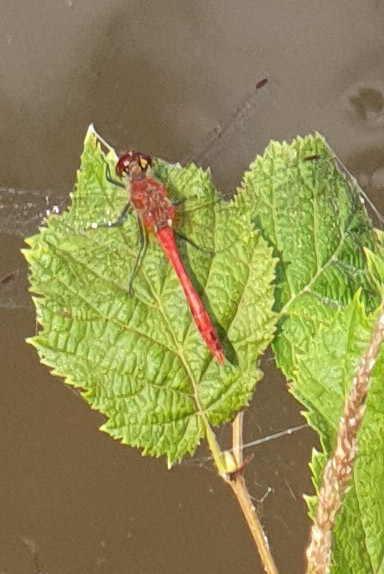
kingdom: Animalia
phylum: Arthropoda
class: Insecta
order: Odonata
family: Libellulidae
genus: Sympetrum
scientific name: Sympetrum sanguineum
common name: Ruddy darter
